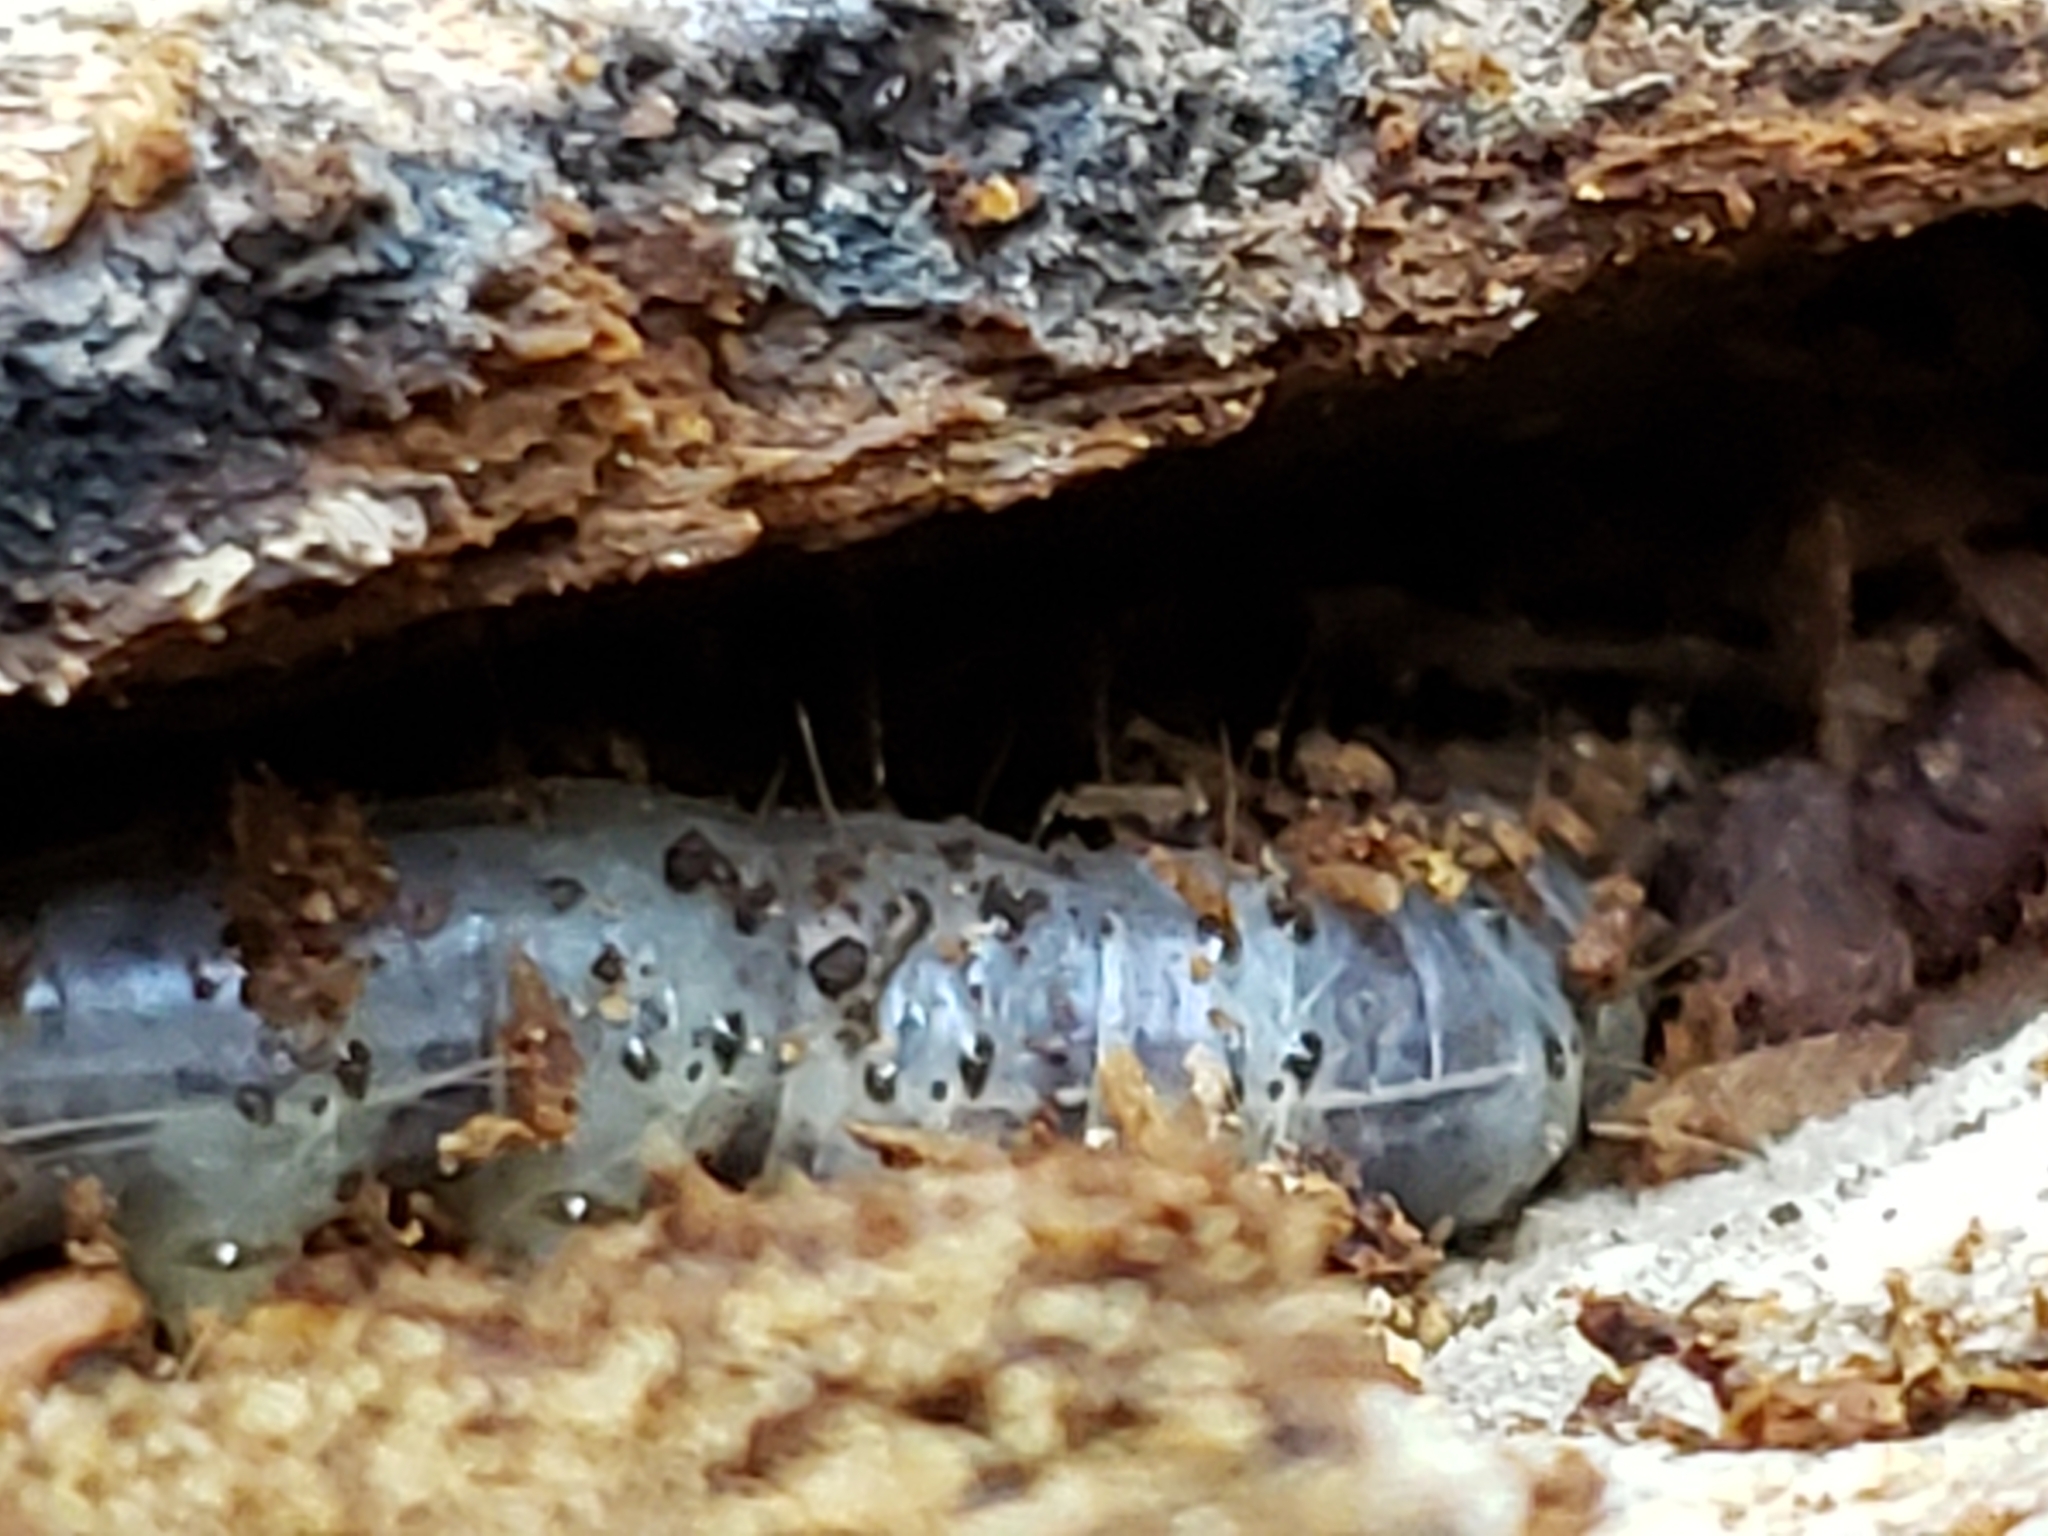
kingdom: Animalia
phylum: Arthropoda
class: Insecta
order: Lepidoptera
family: Erebidae
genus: Scolecocampa
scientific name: Scolecocampa liburna
